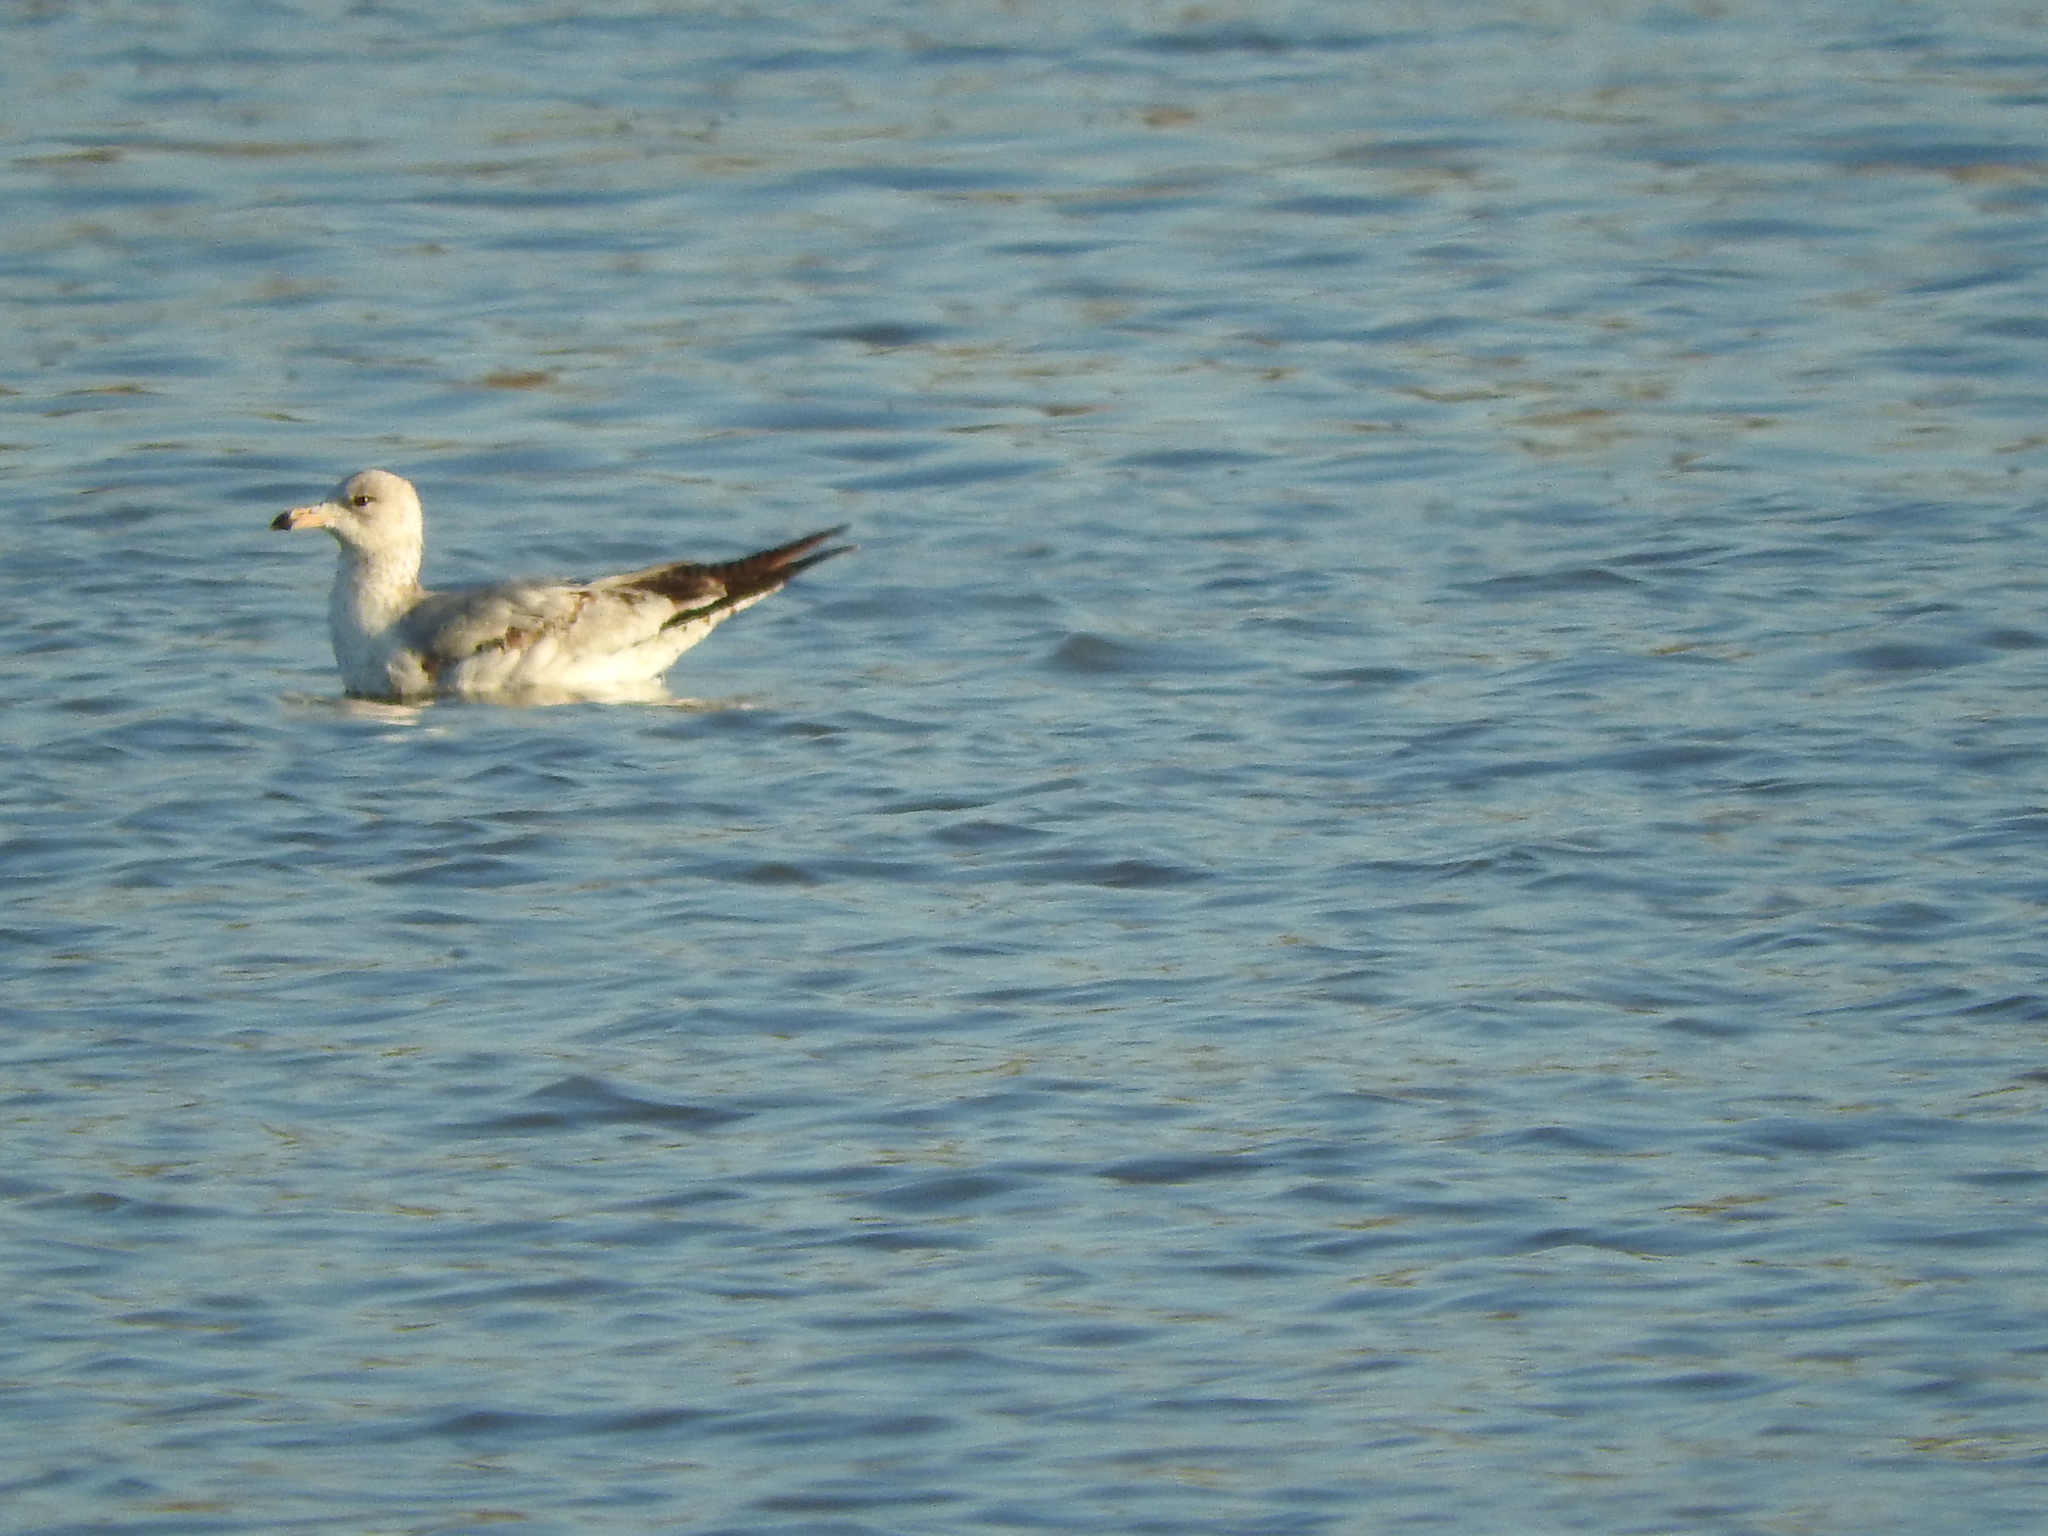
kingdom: Animalia
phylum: Chordata
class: Aves
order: Charadriiformes
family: Laridae
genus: Larus
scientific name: Larus delawarensis
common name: Ring-billed gull
